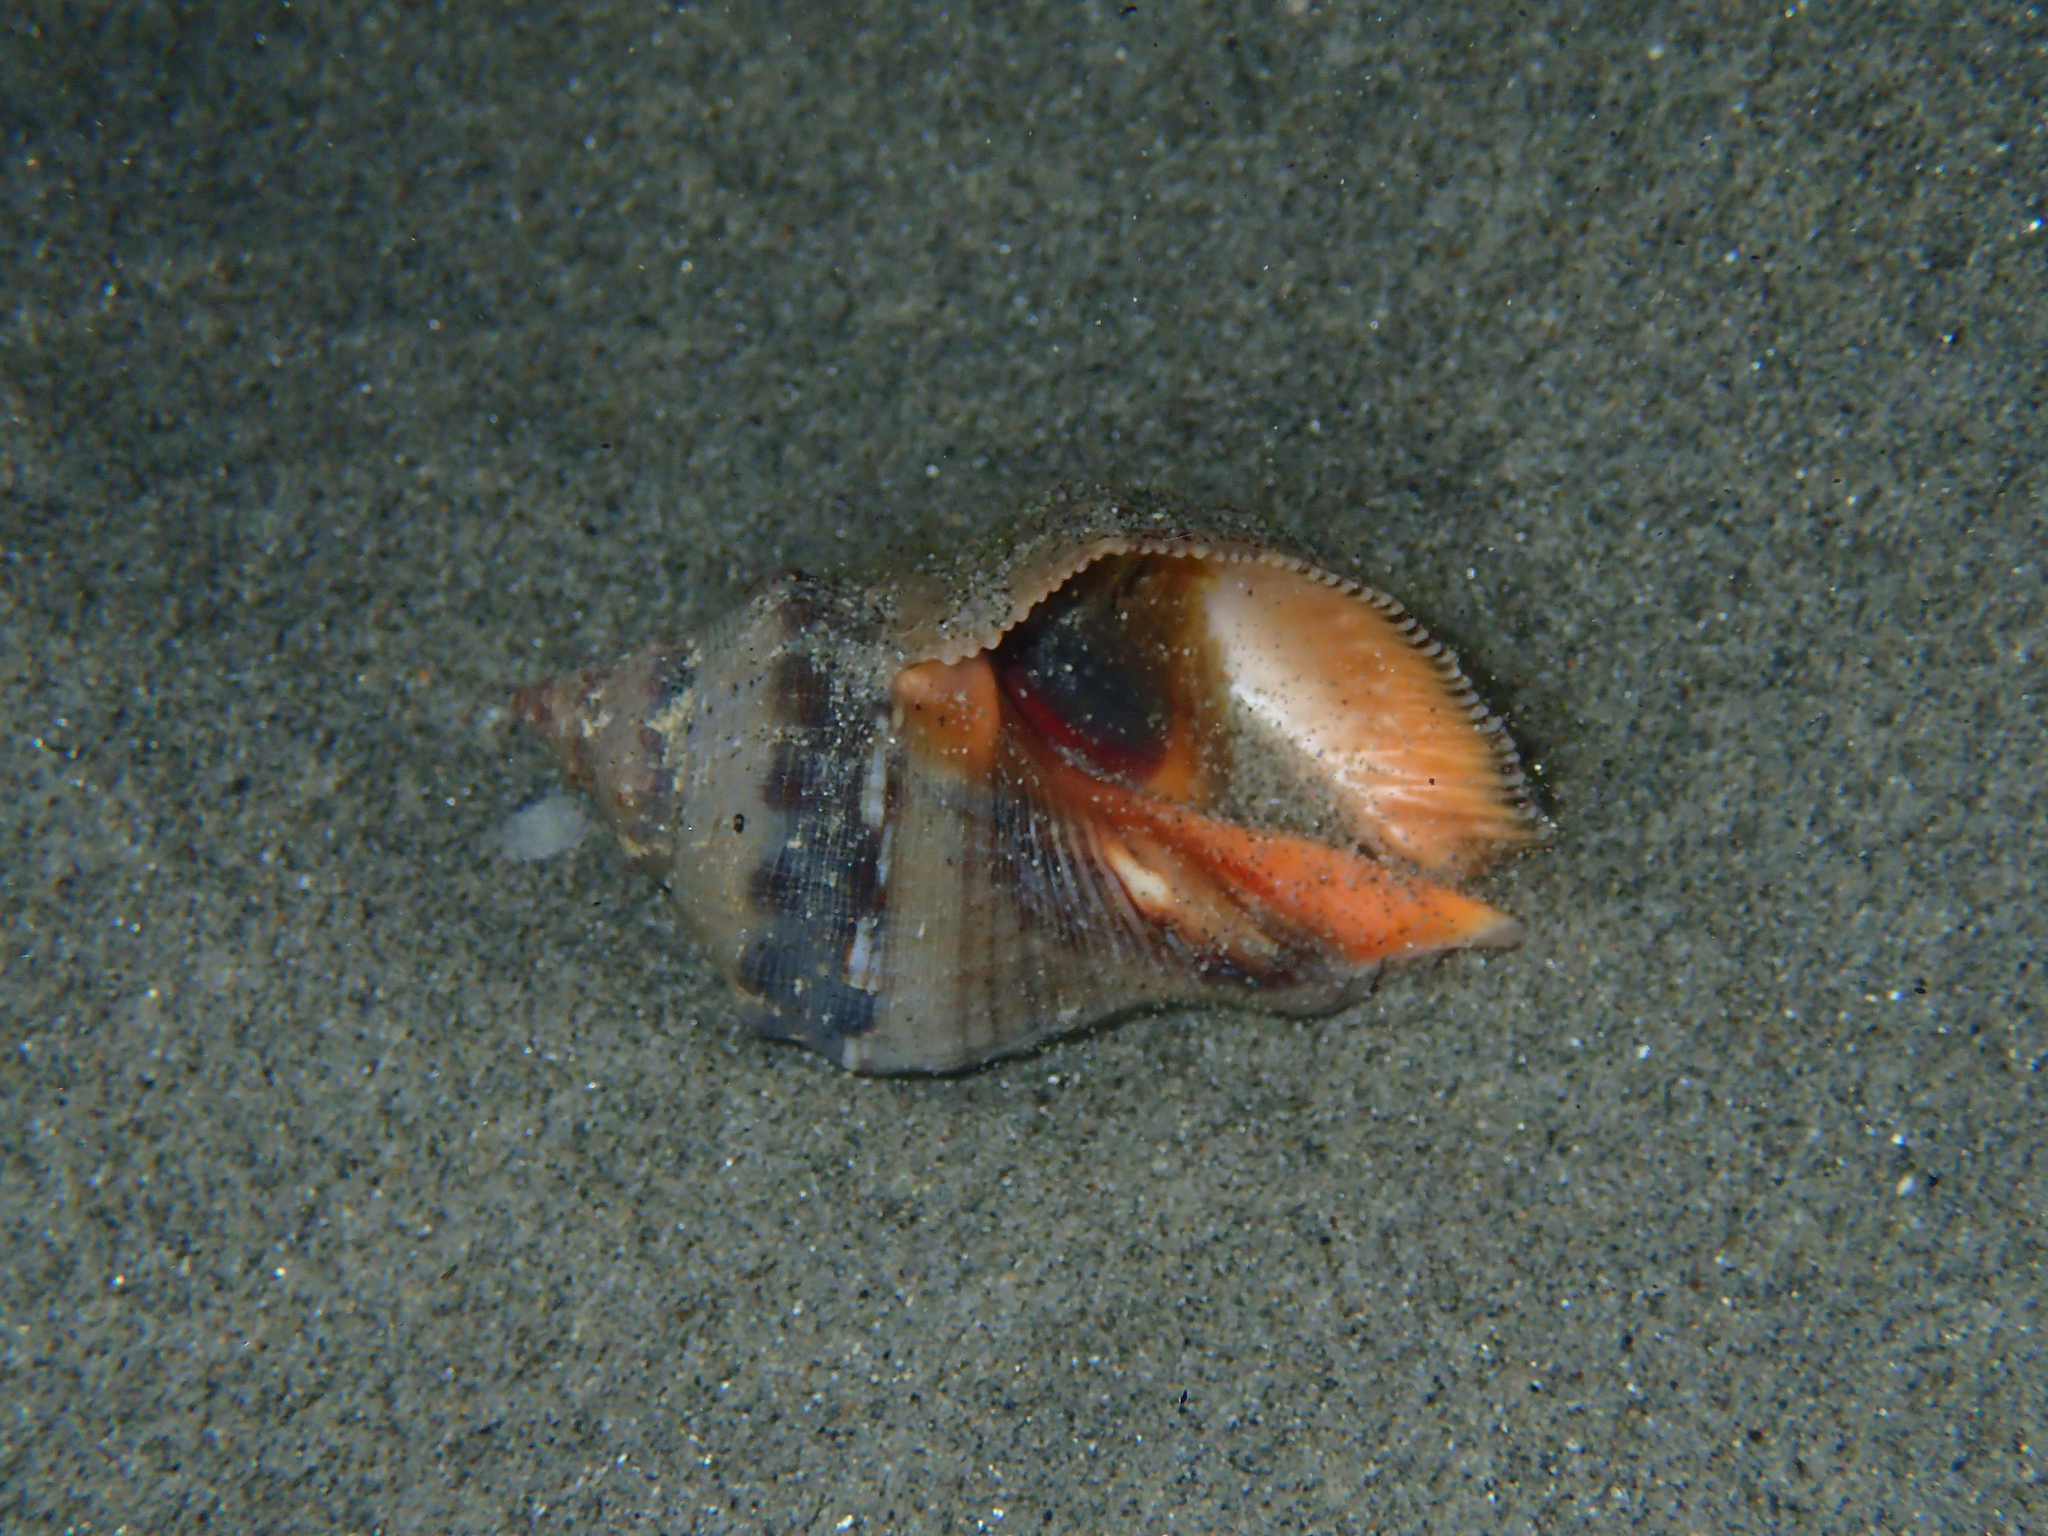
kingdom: Animalia
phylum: Mollusca
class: Gastropoda
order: Neogastropoda
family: Muricidae
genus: Stramonita
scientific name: Stramonita haemastoma
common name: Florida dog winkle
